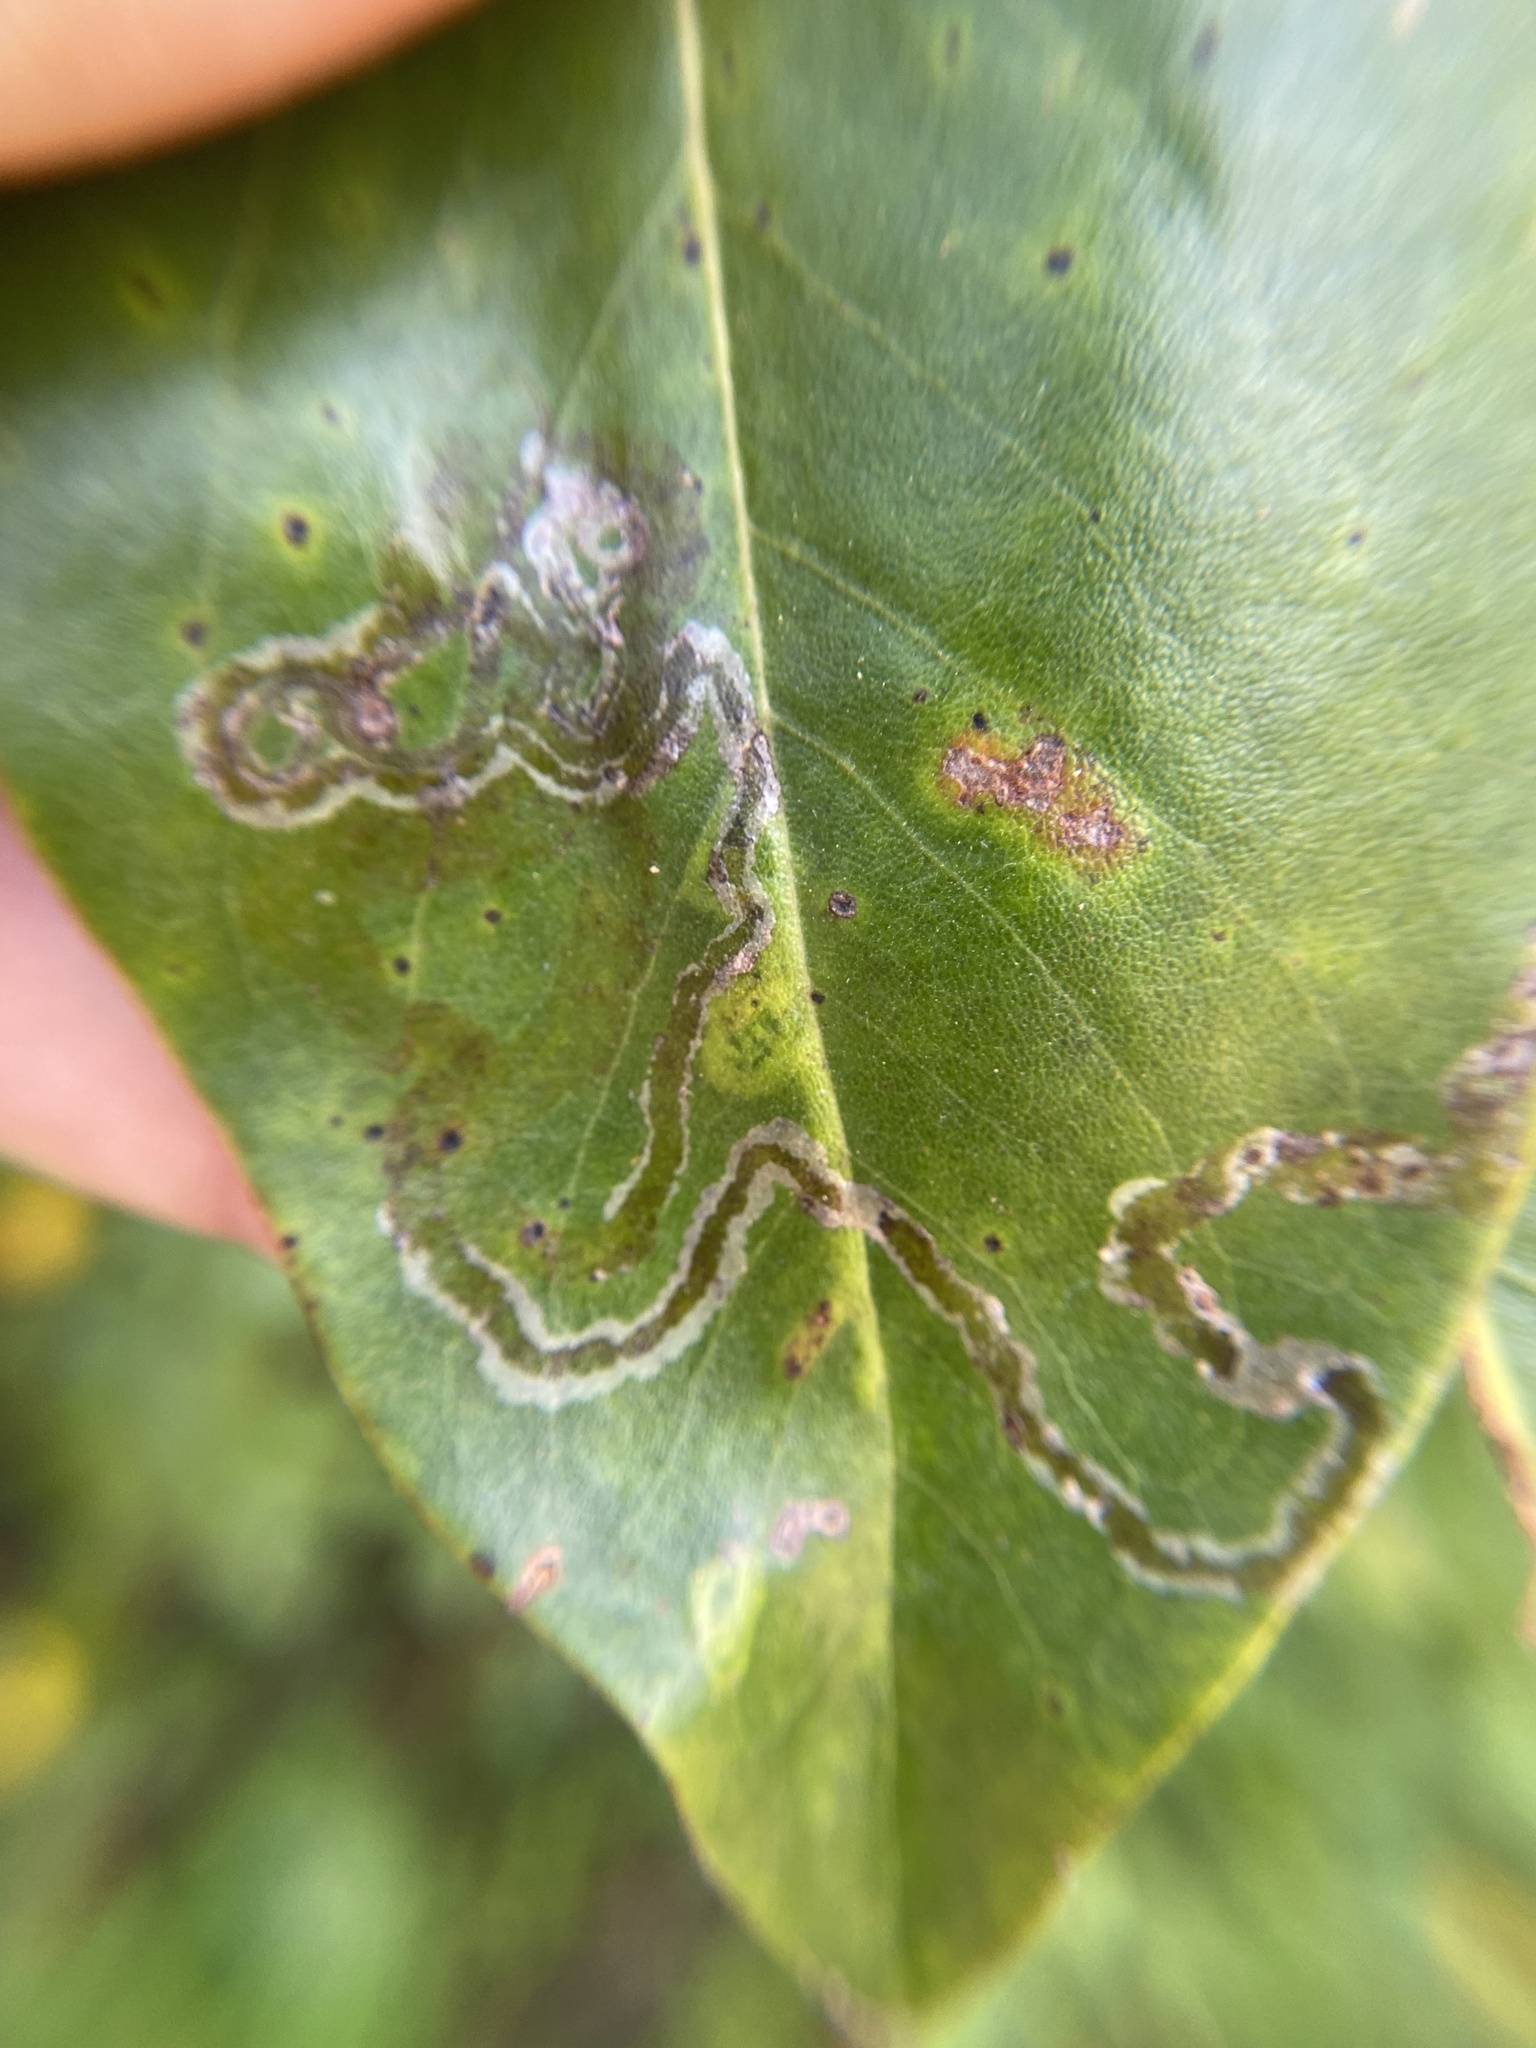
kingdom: Animalia
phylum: Arthropoda
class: Insecta
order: Lepidoptera
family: Gracillariidae
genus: Phyllocnistis
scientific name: Phyllocnistis liriodendronella
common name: Tulip tree leaf miner
